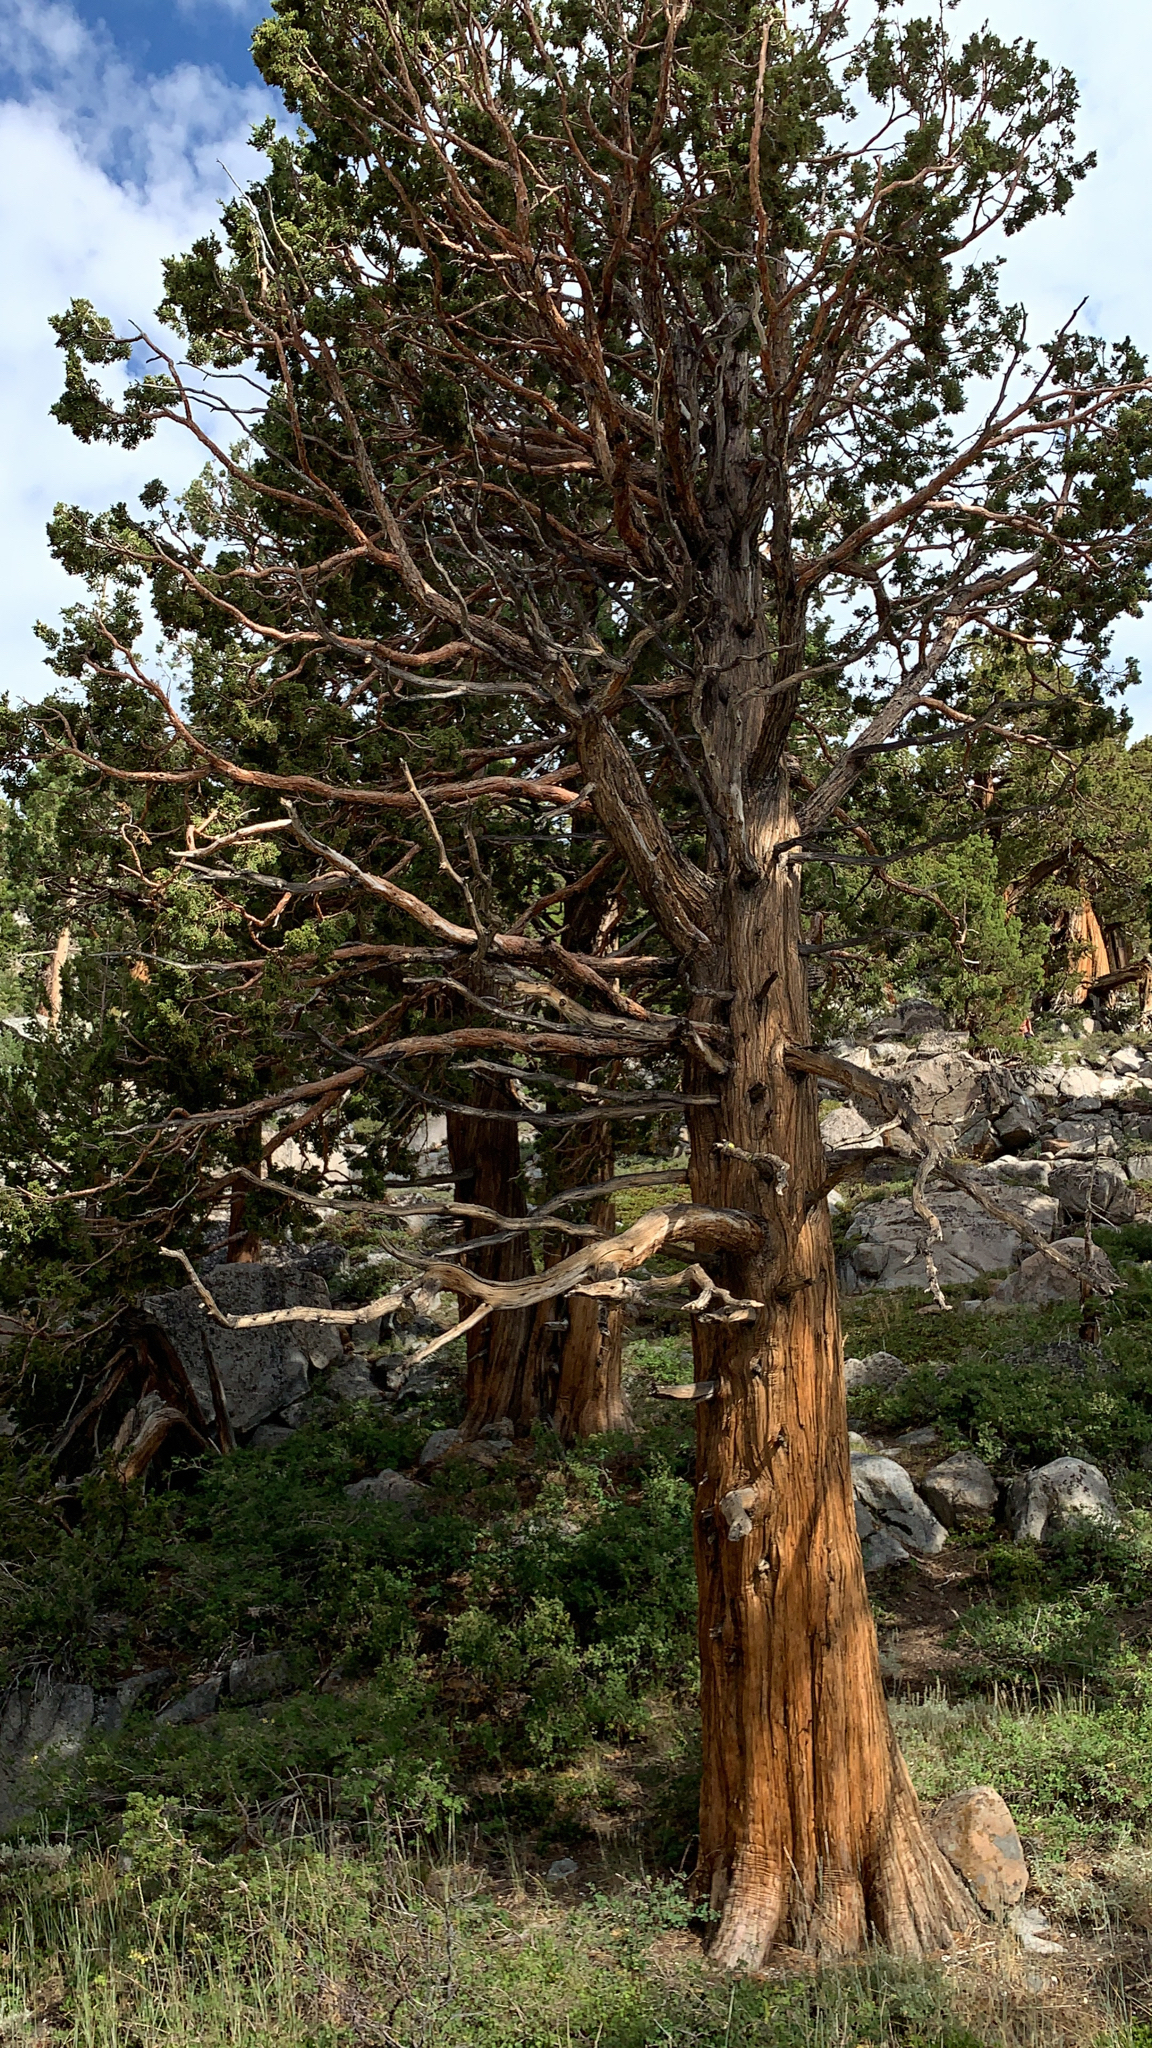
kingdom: Plantae
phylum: Tracheophyta
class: Pinopsida
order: Pinales
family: Cupressaceae
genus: Juniperus
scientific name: Juniperus occidentalis
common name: Western juniper
